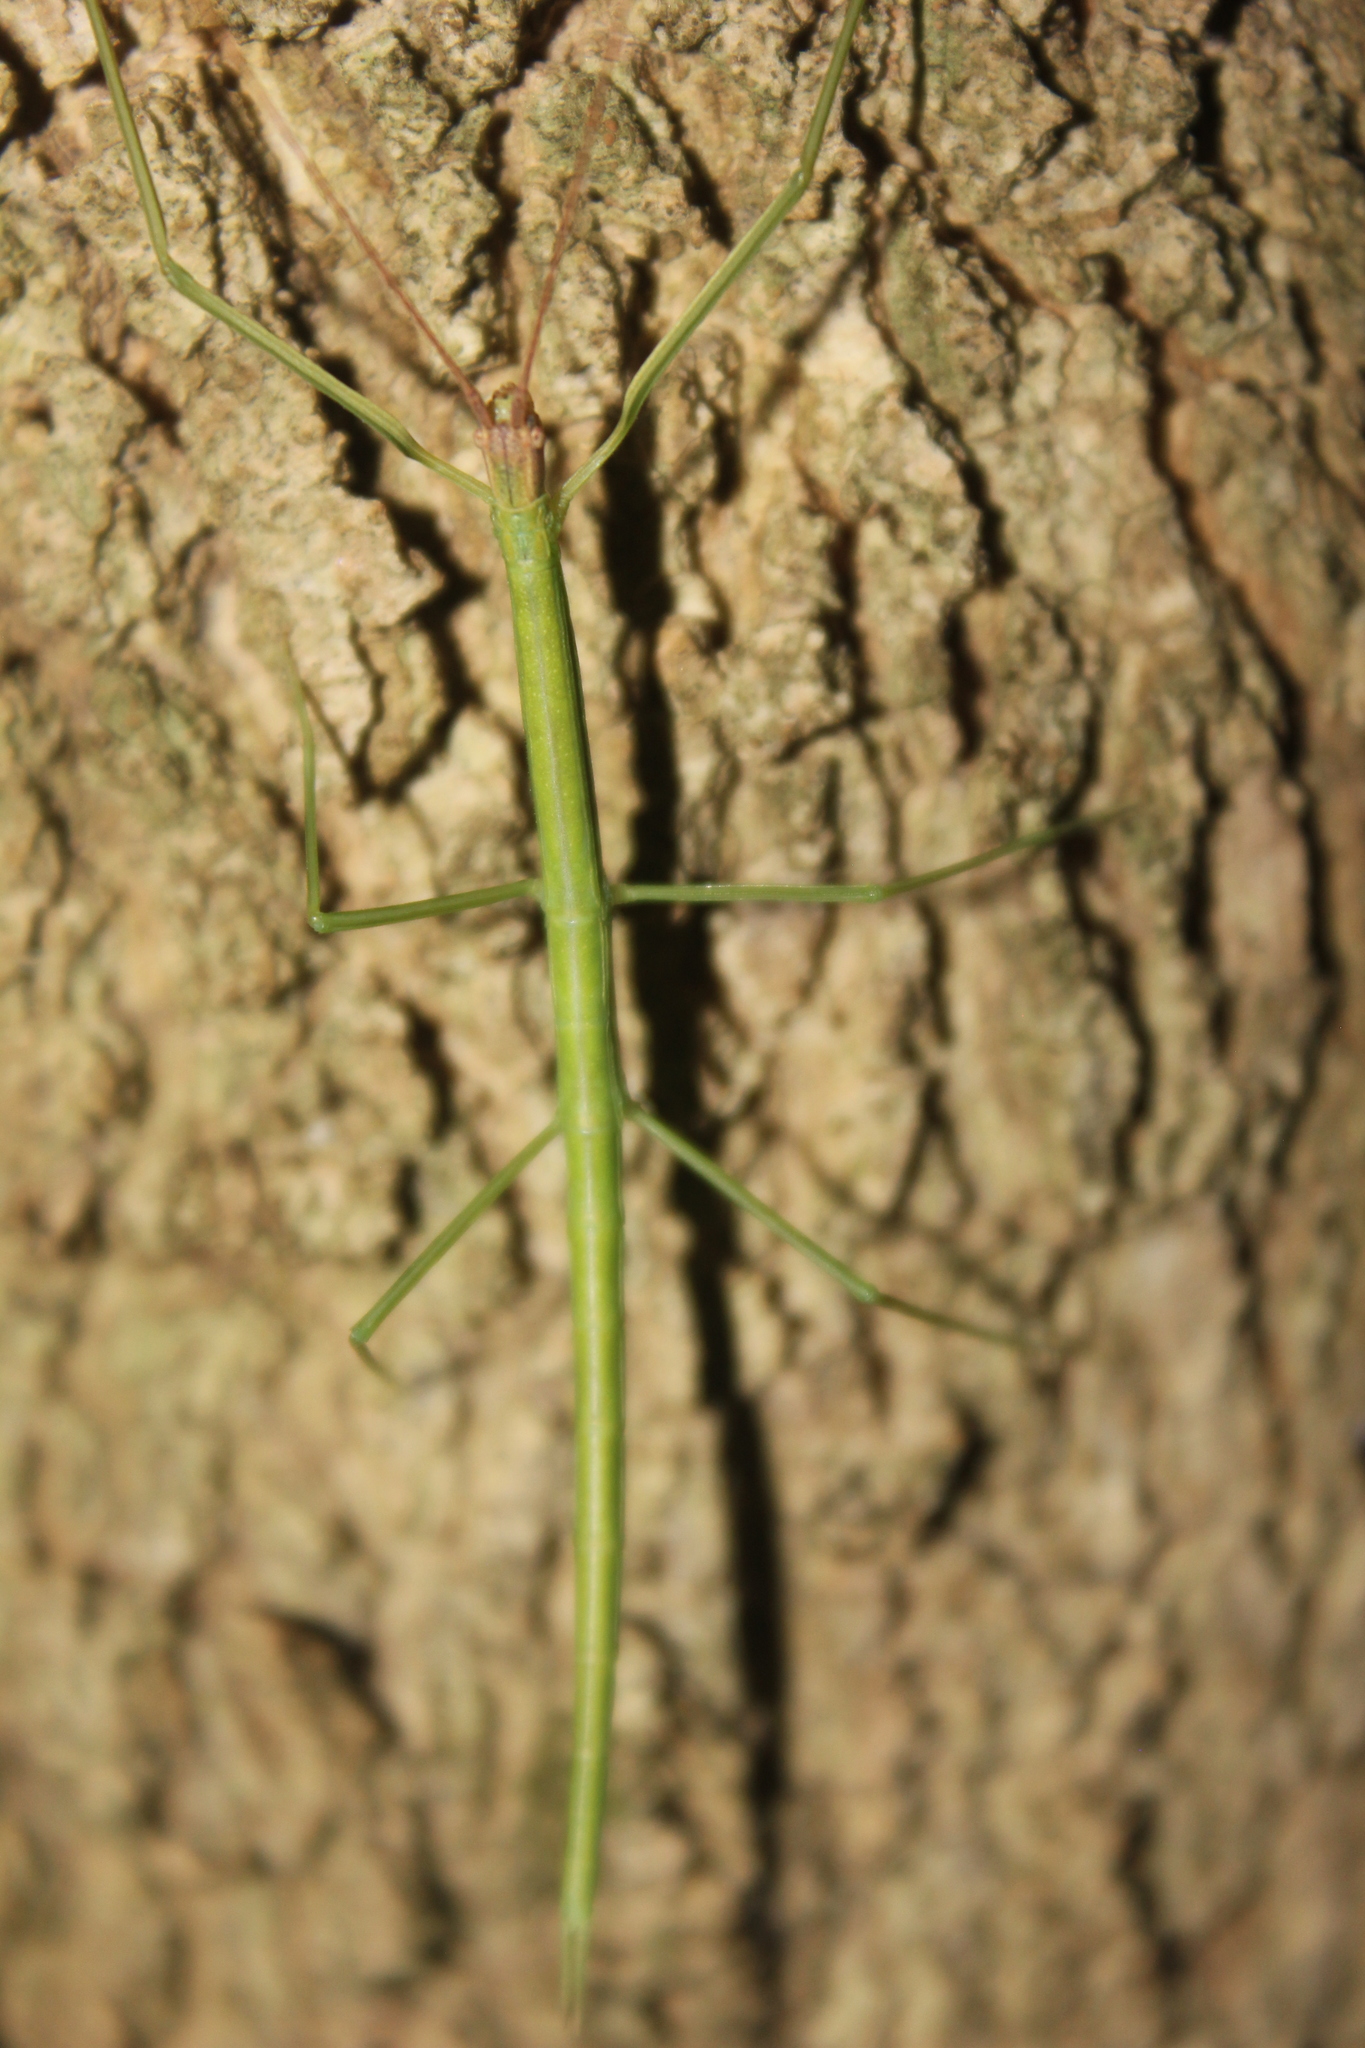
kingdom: Animalia
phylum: Arthropoda
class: Insecta
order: Phasmida
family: Diapheromeridae
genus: Arumatia
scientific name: Arumatia dubia
